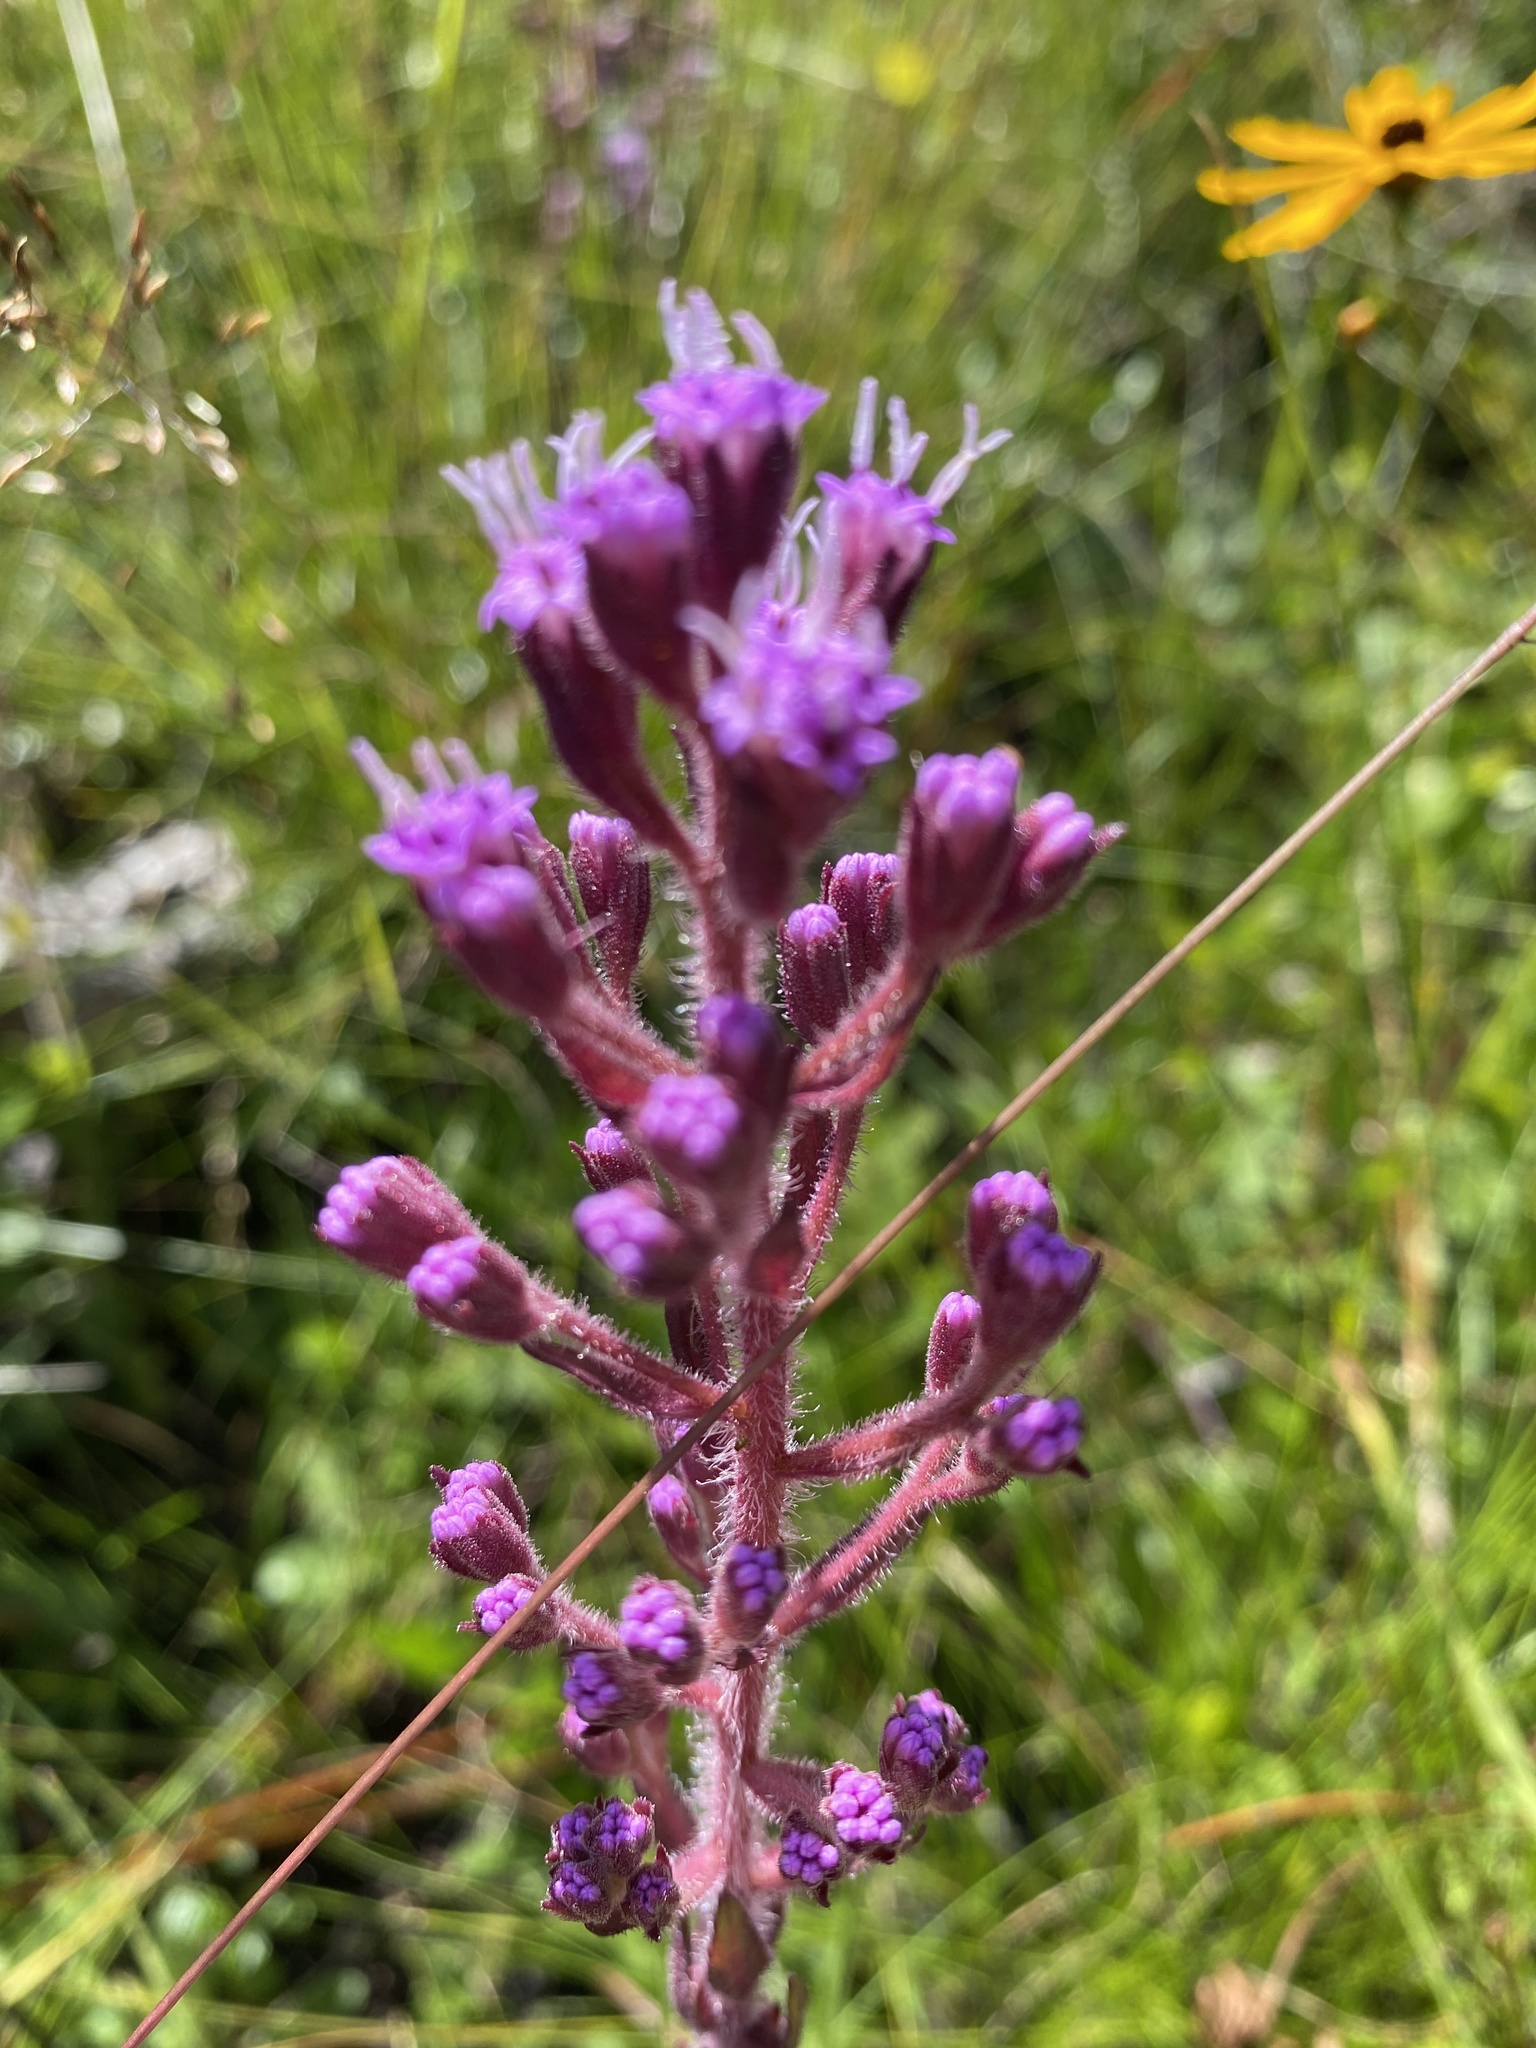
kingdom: Plantae
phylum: Tracheophyta
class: Magnoliopsida
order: Asterales
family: Asteraceae
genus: Carphephorus
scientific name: Carphephorus paniculatus
